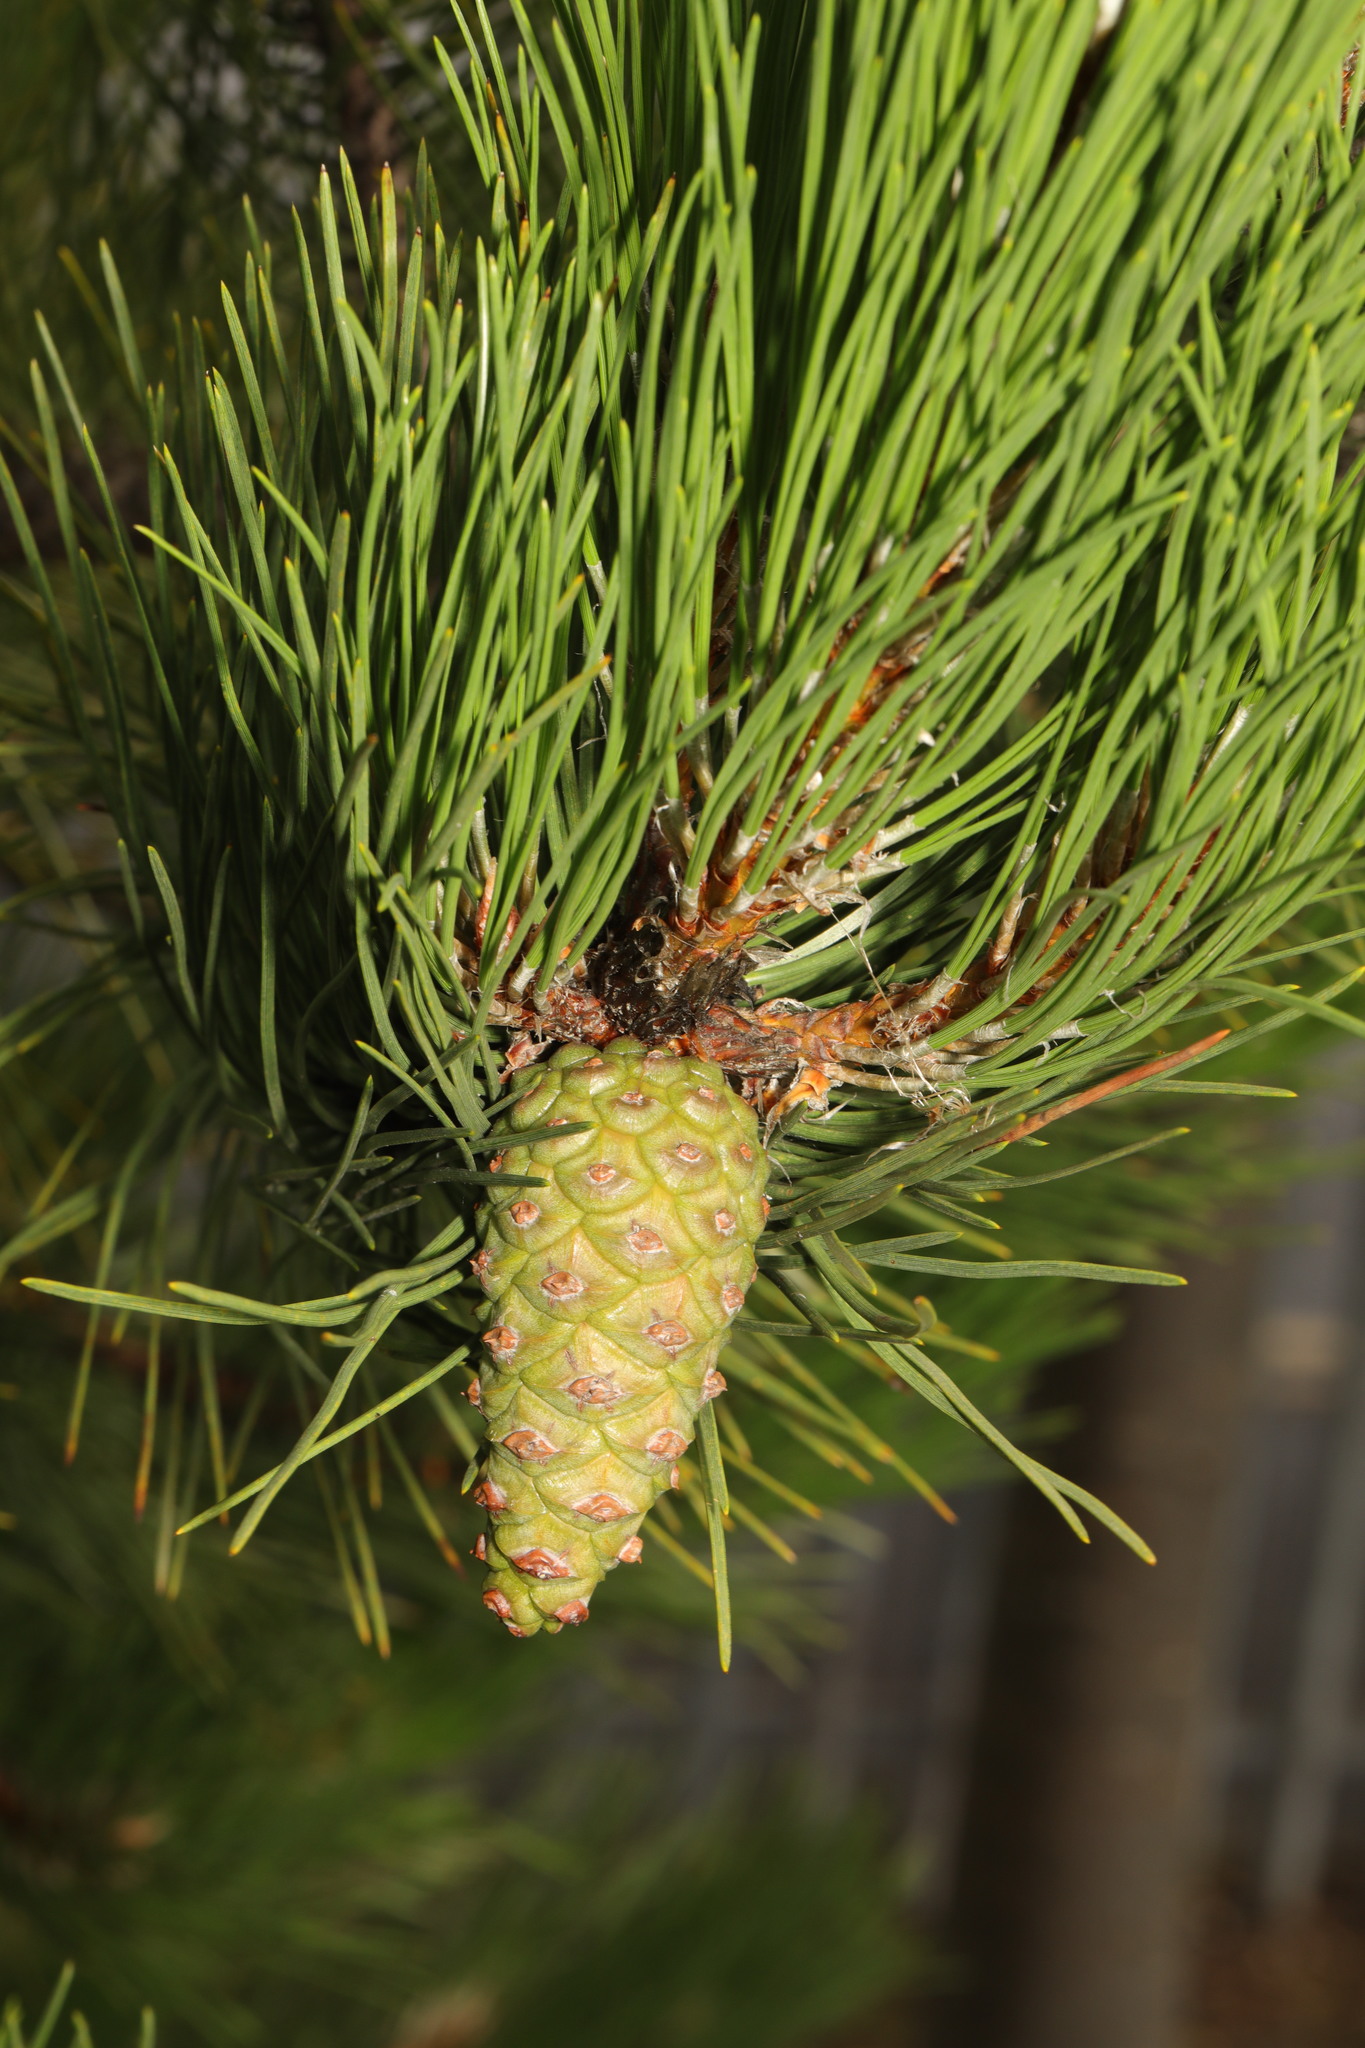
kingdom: Plantae
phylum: Tracheophyta
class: Pinopsida
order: Pinales
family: Pinaceae
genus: Pinus
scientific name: Pinus nigra
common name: Austrian pine
